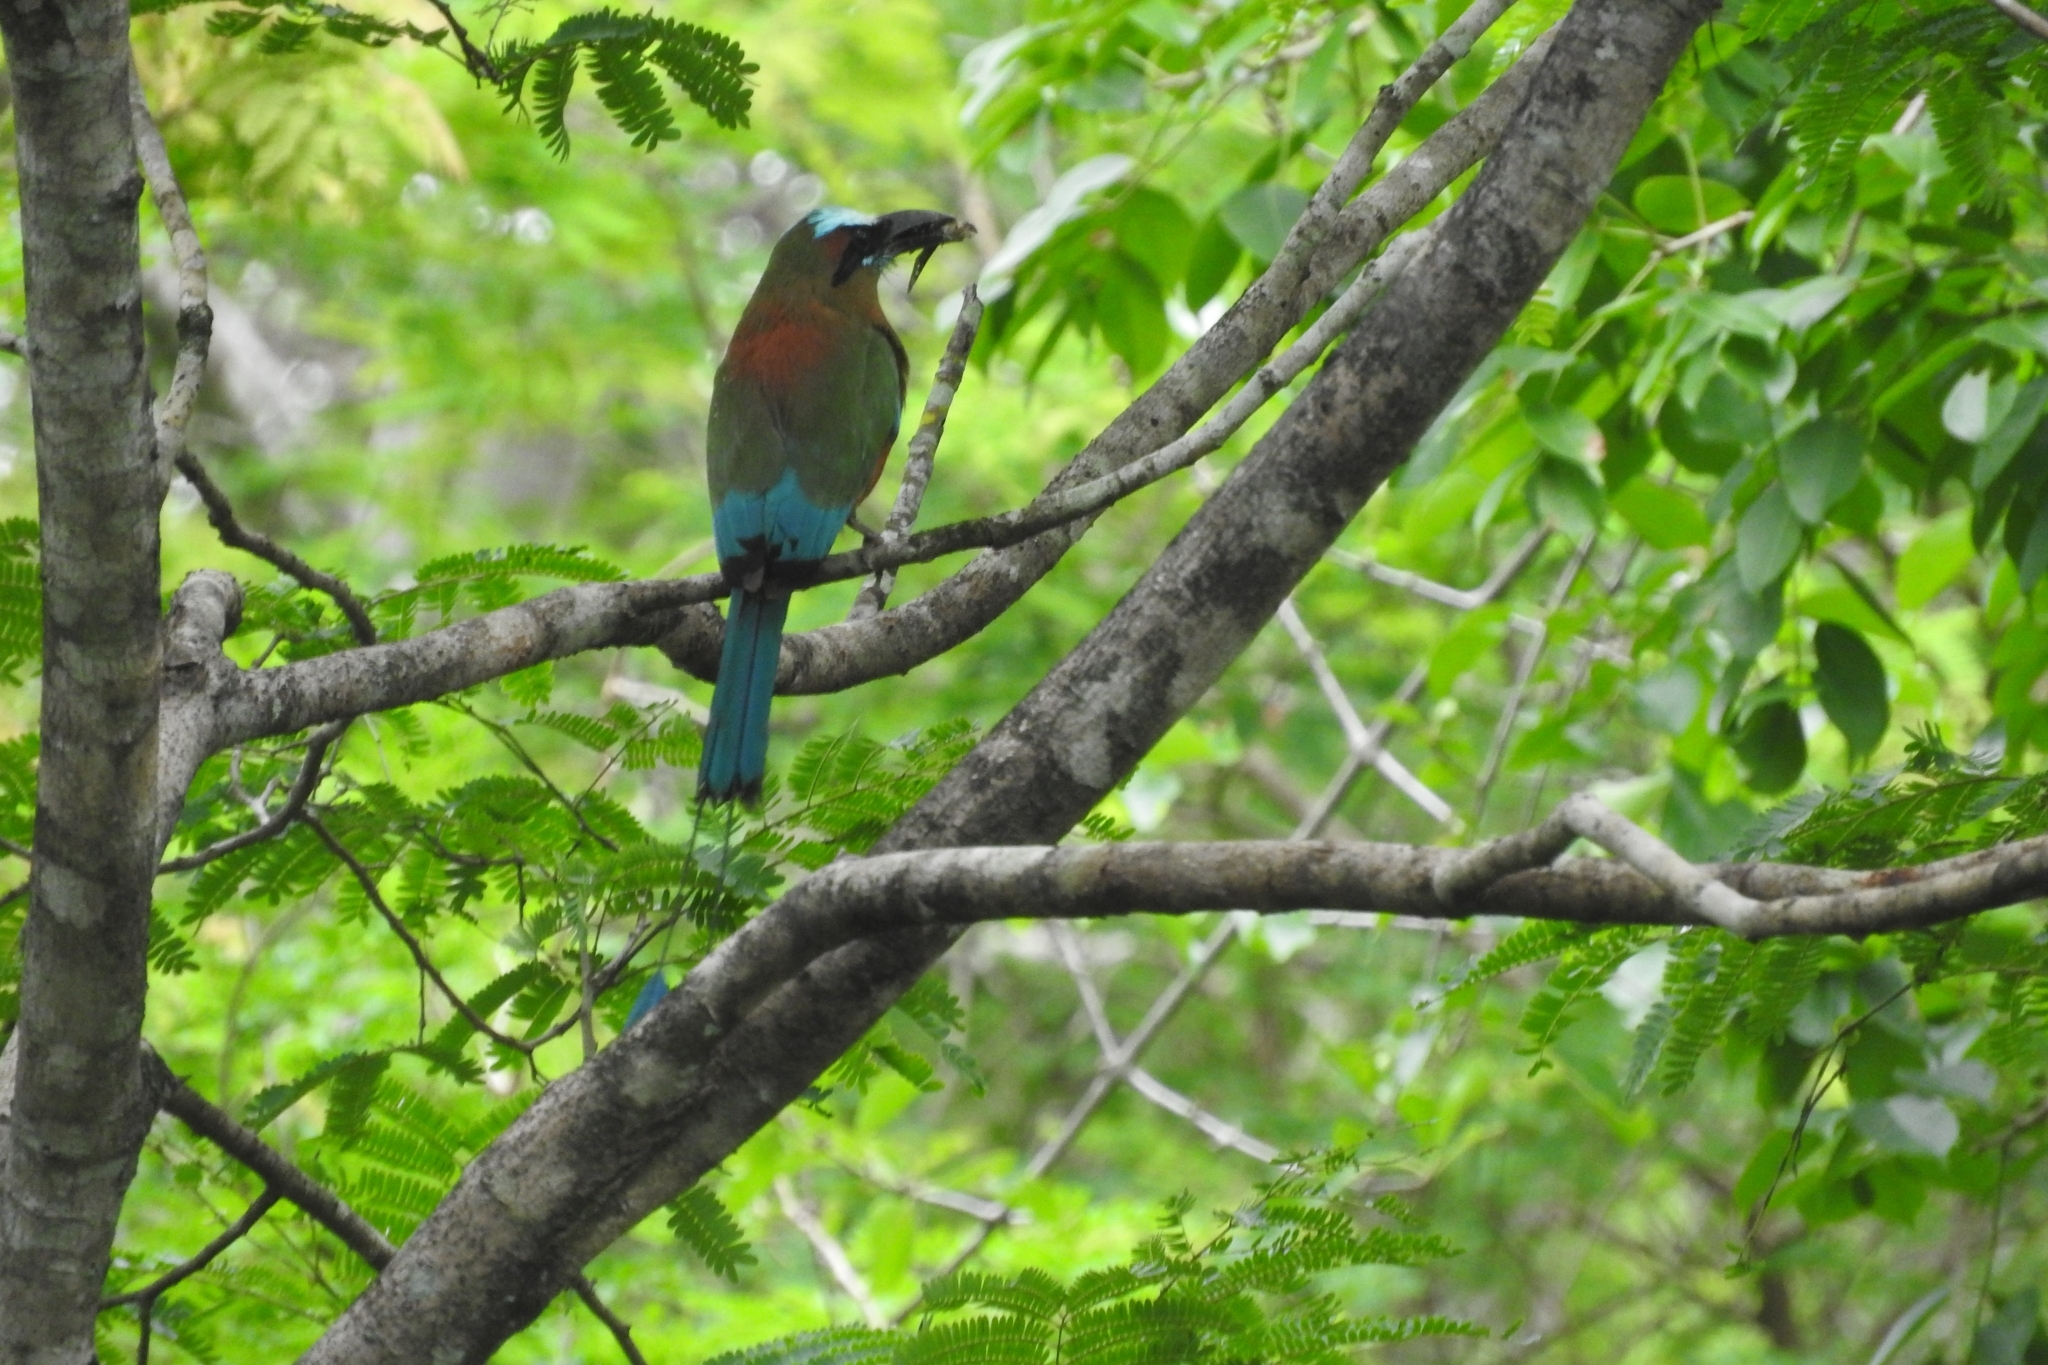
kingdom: Animalia
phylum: Chordata
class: Aves
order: Coraciiformes
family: Momotidae
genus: Eumomota
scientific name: Eumomota superciliosa
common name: Turquoise-browed motmot
